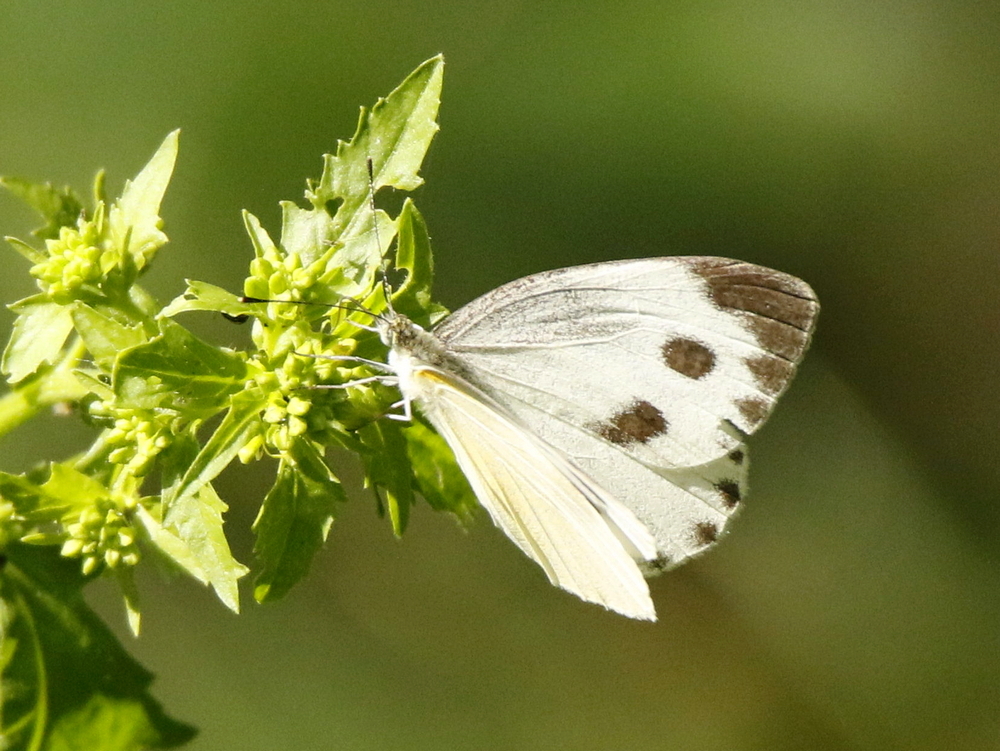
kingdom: Animalia
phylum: Arthropoda
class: Insecta
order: Lepidoptera
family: Pieridae
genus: Pieris
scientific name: Pieris canidia
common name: Indian cabbage white
